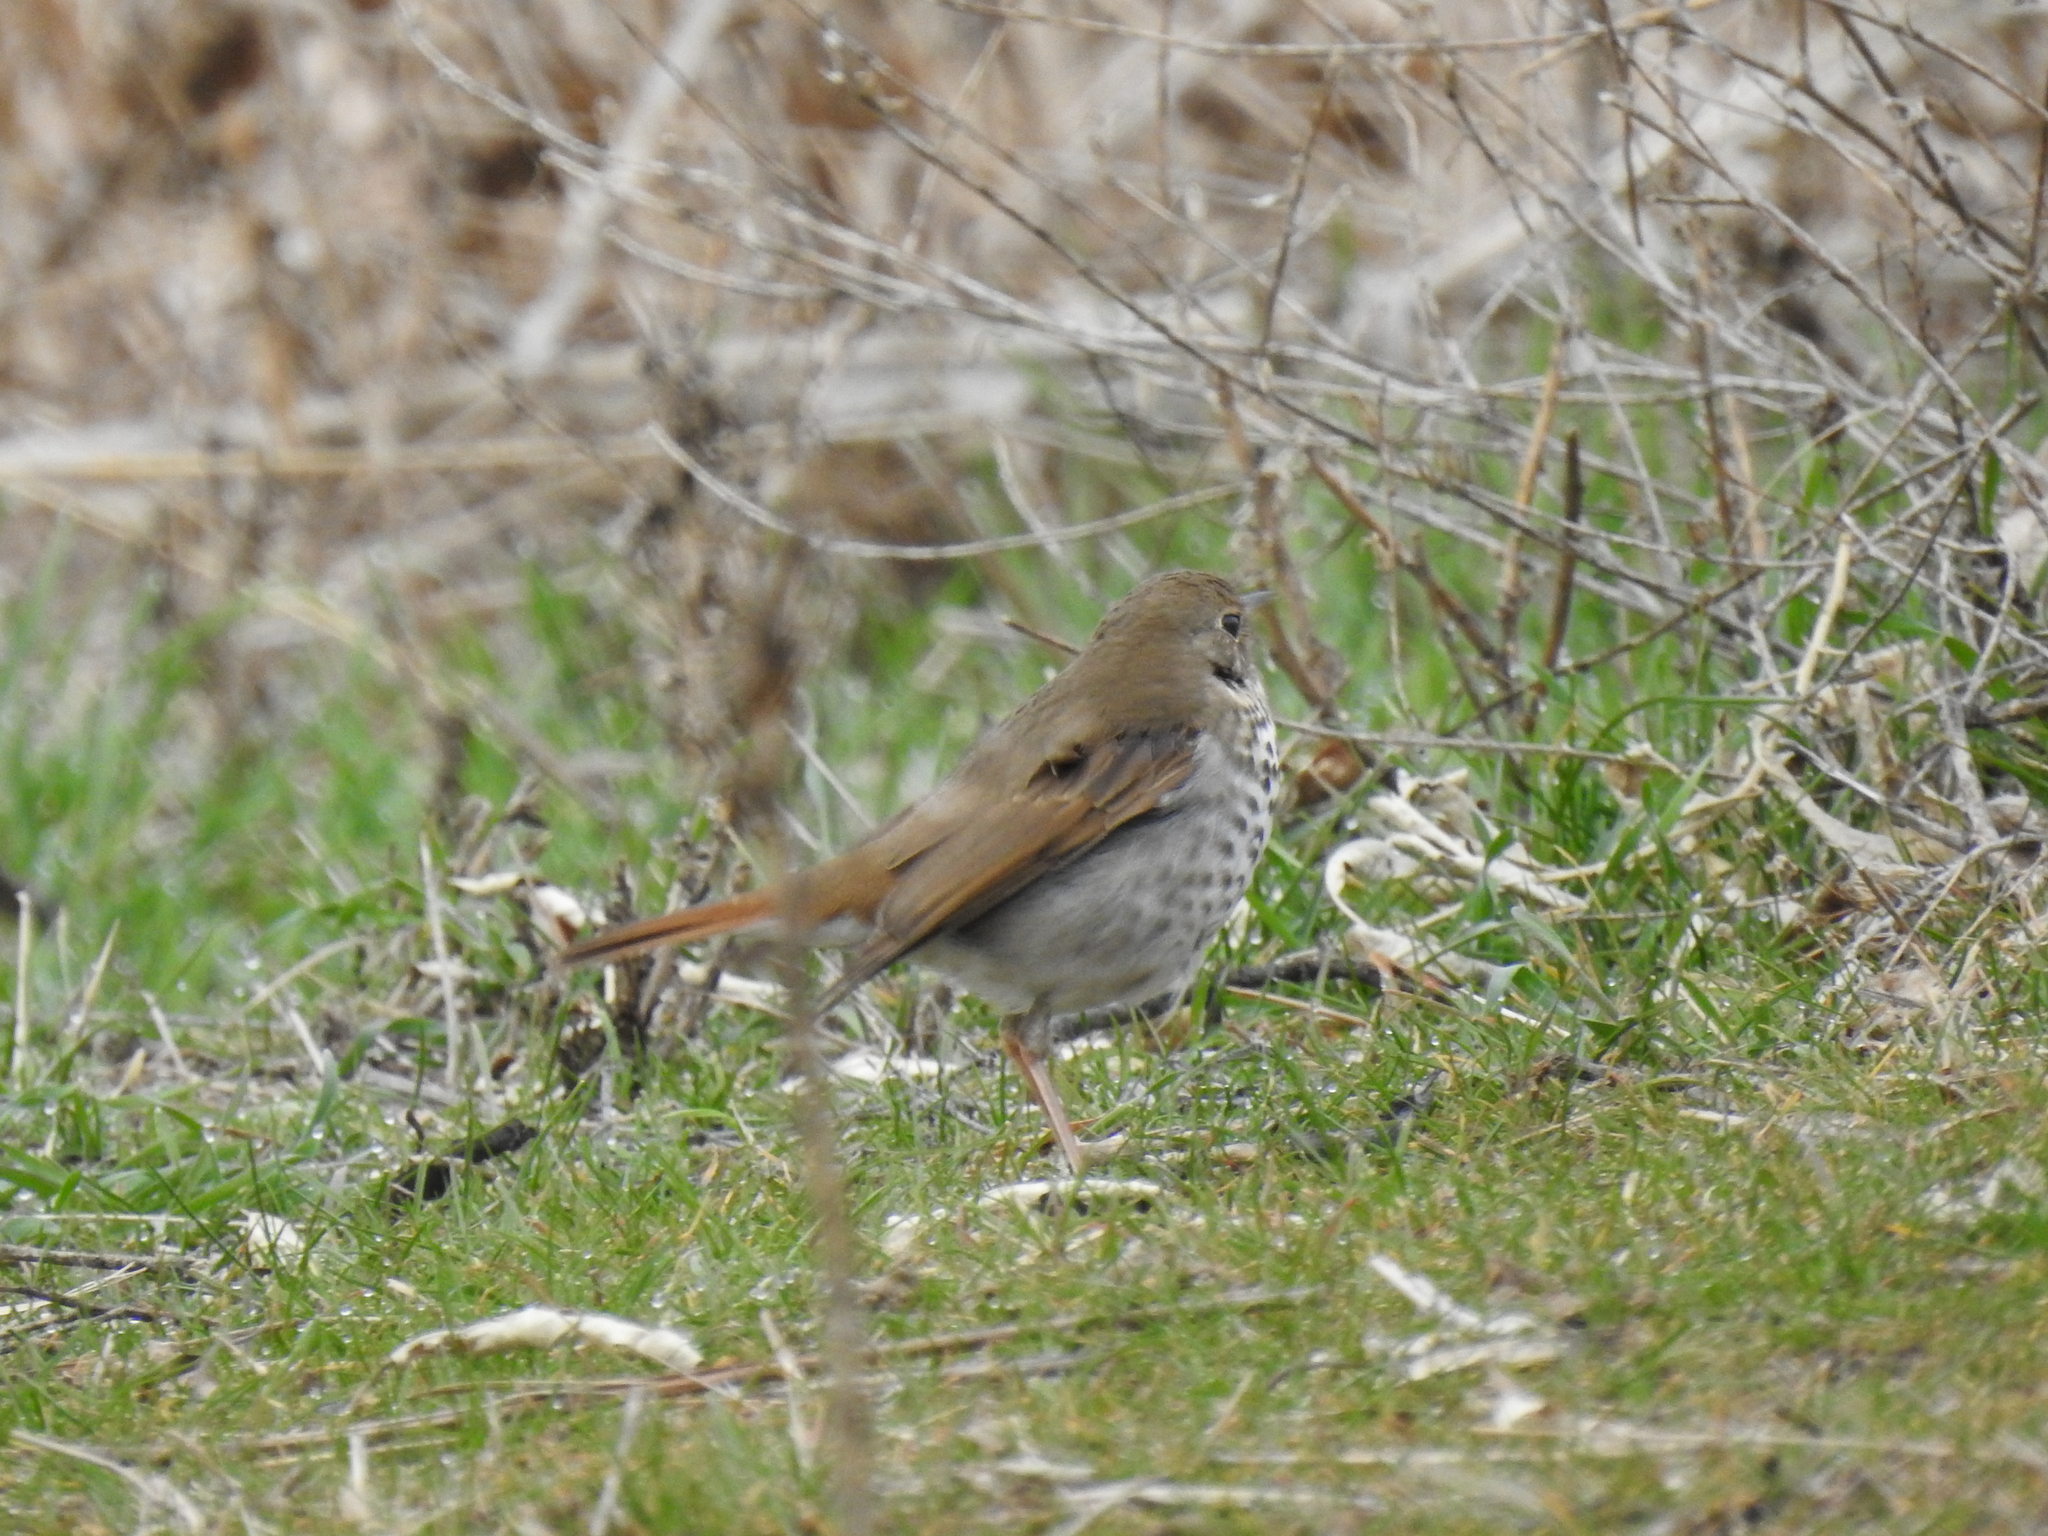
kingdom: Animalia
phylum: Chordata
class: Aves
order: Passeriformes
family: Turdidae
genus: Catharus
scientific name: Catharus guttatus
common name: Hermit thrush
